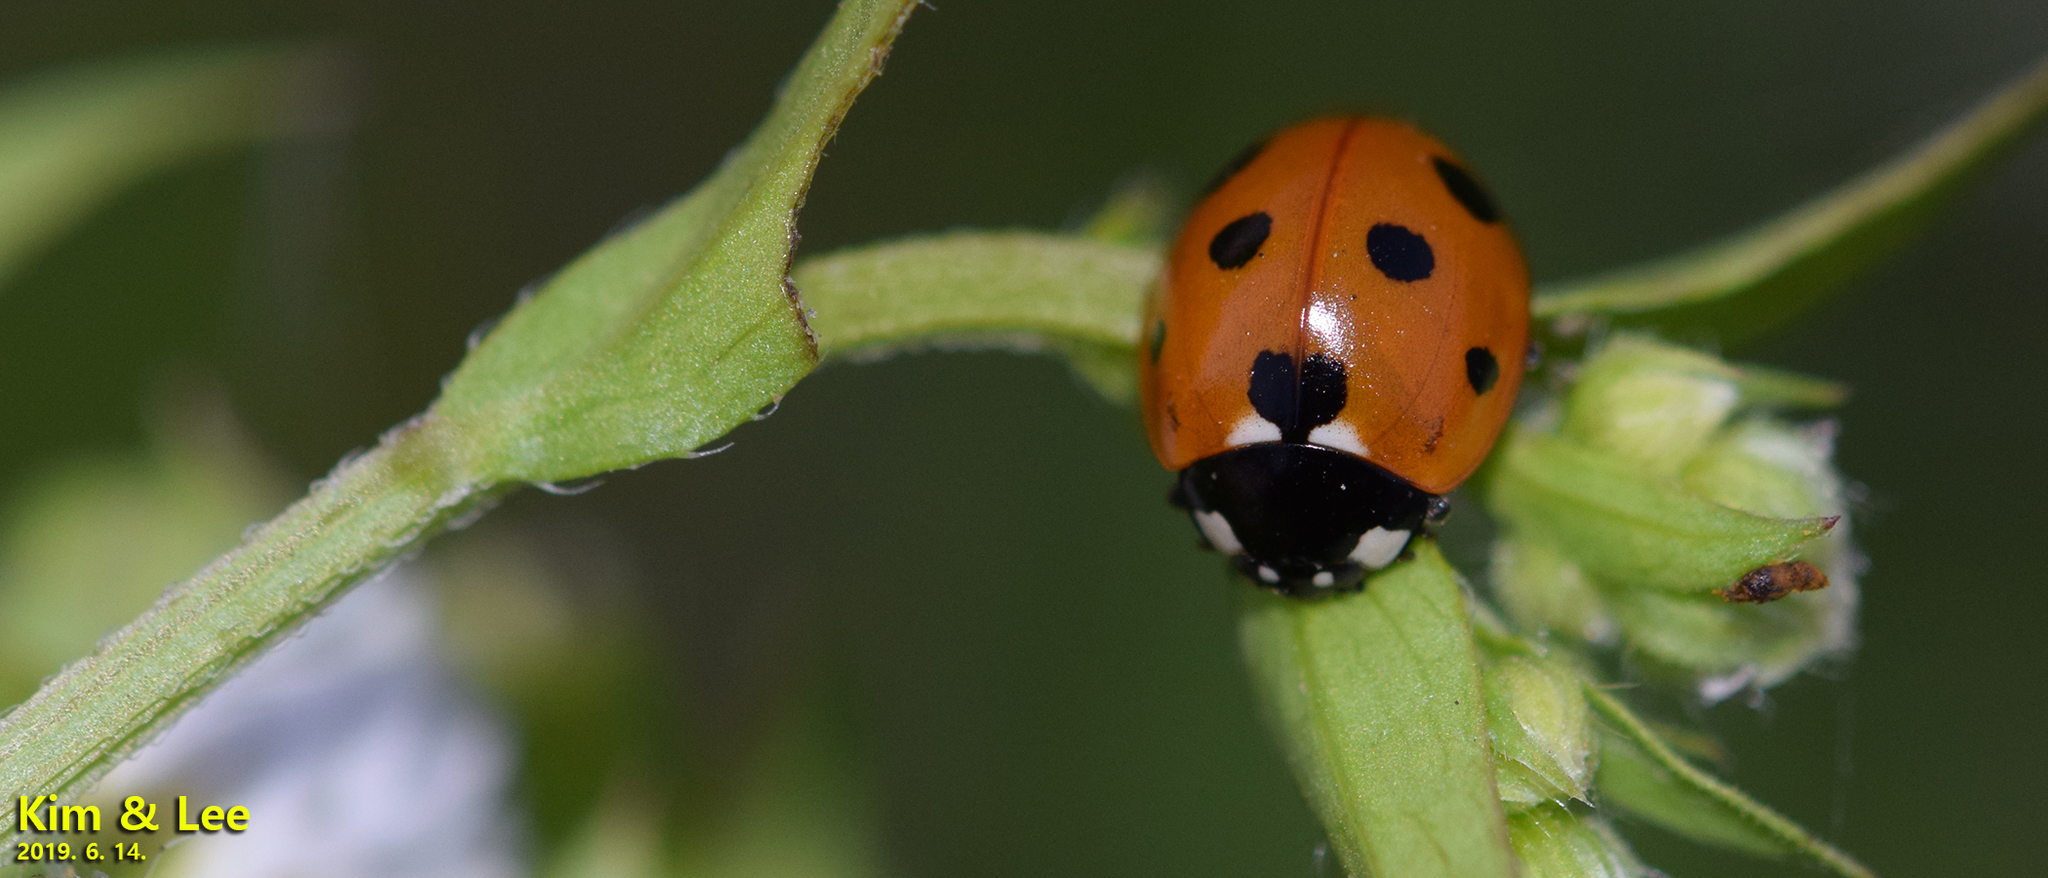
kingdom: Animalia
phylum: Arthropoda
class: Insecta
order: Coleoptera
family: Coccinellidae
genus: Coccinella
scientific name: Coccinella septempunctata
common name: Sevenspotted lady beetle
